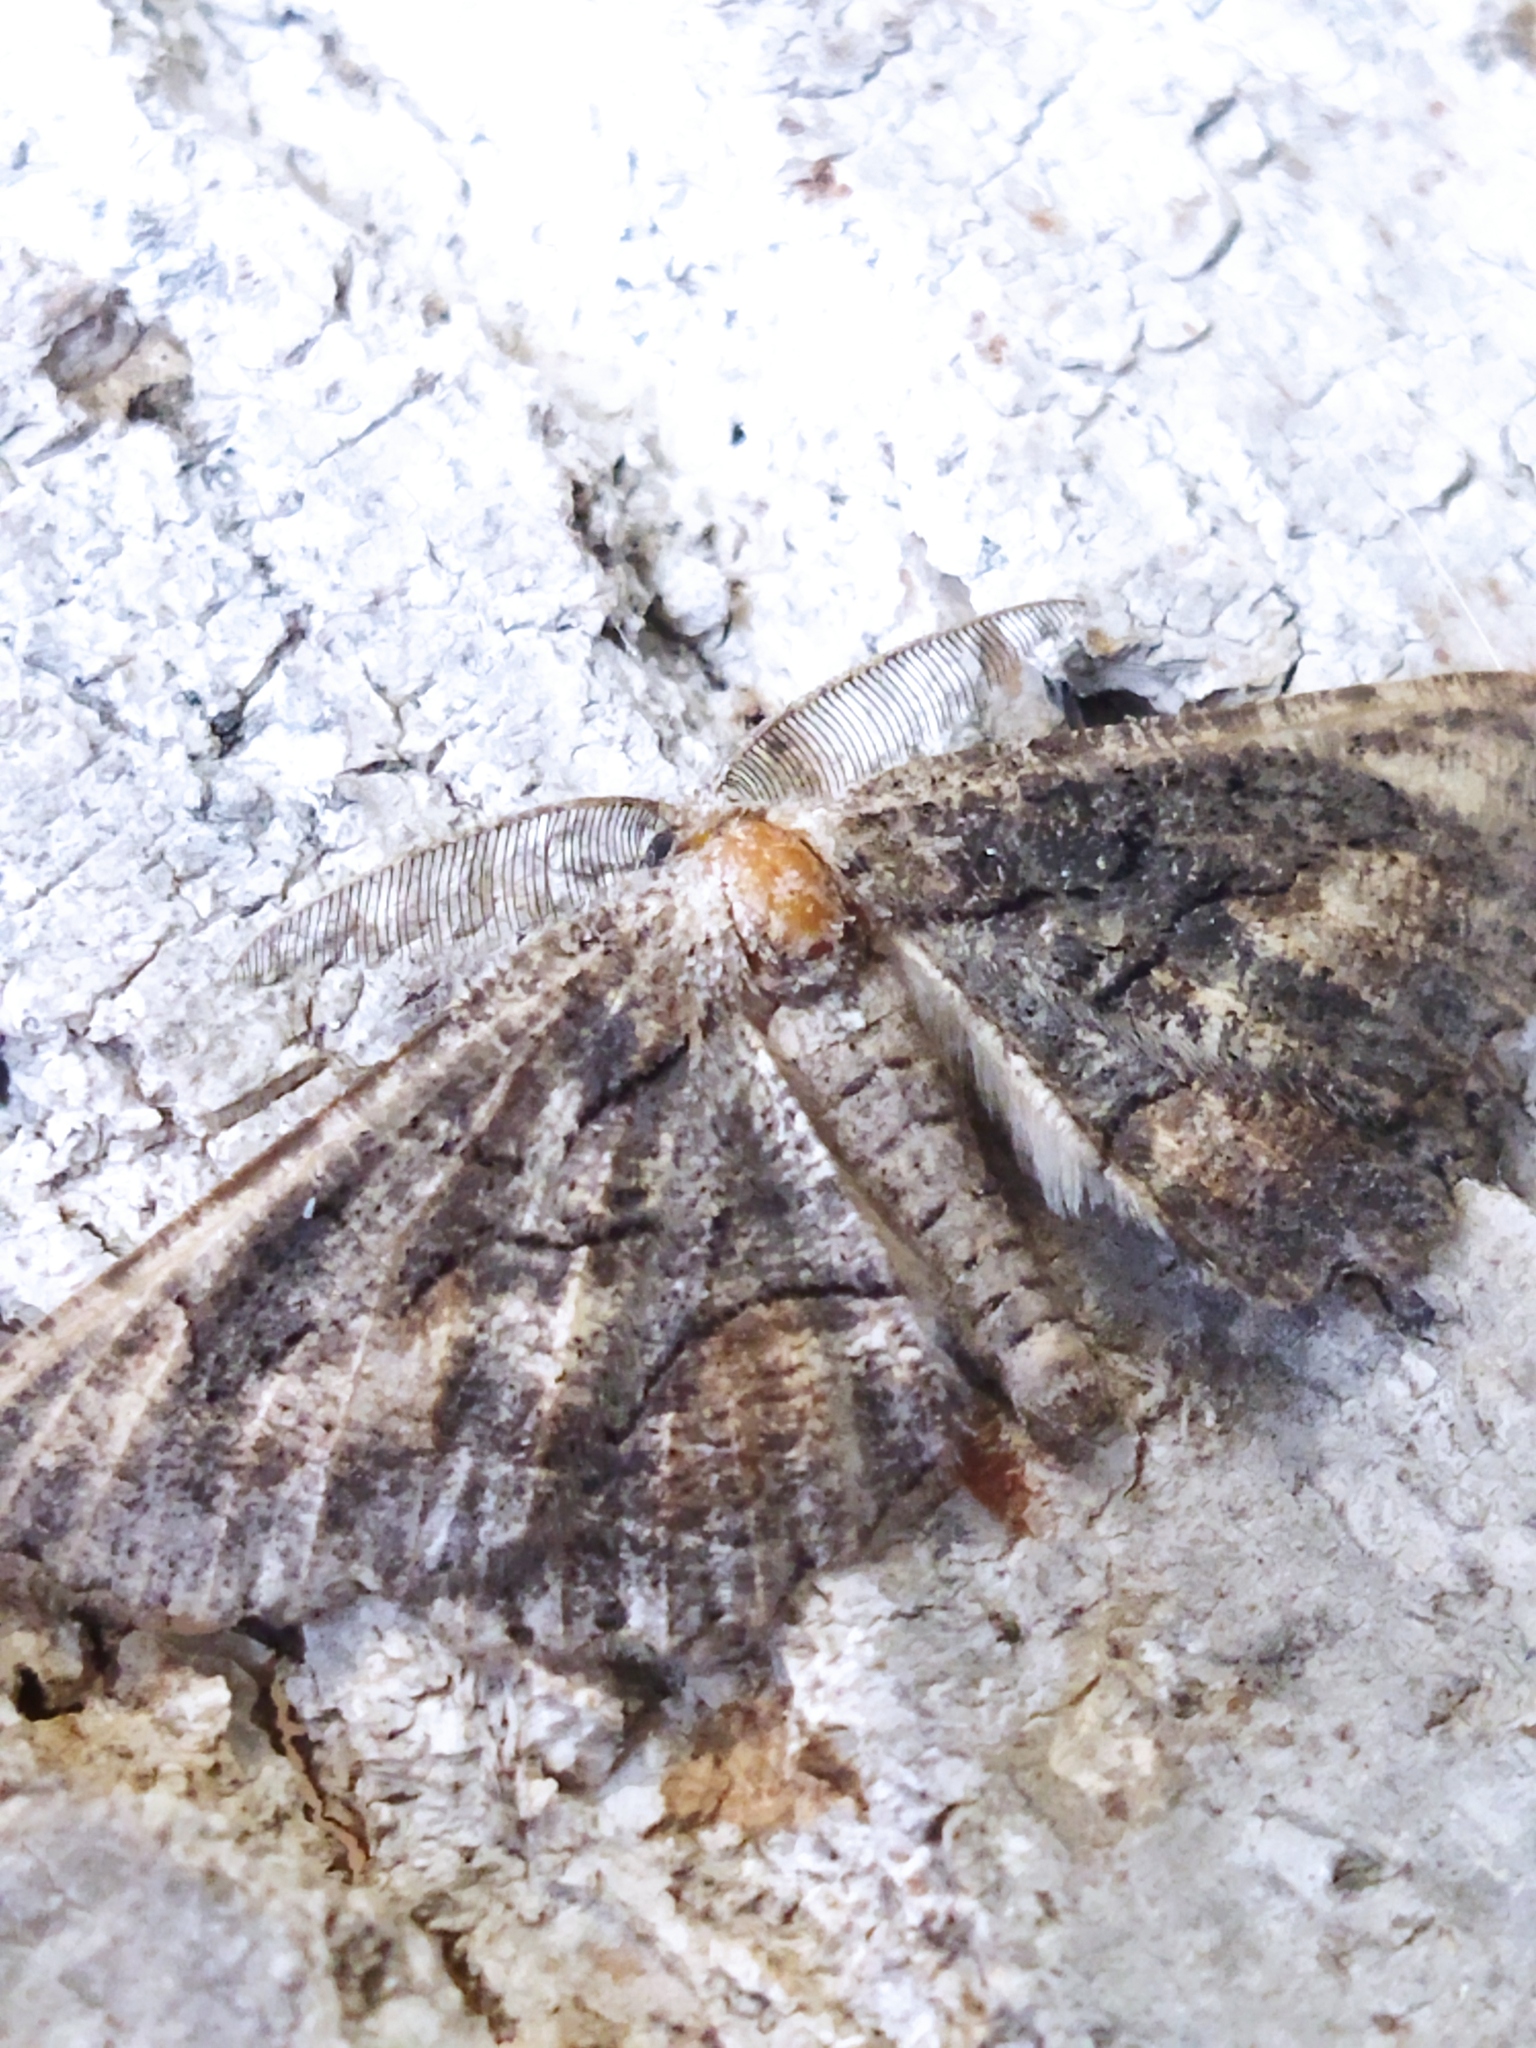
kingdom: Animalia
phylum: Arthropoda
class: Insecta
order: Lepidoptera
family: Geometridae
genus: Nychiodes
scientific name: Nychiodes waltheri
